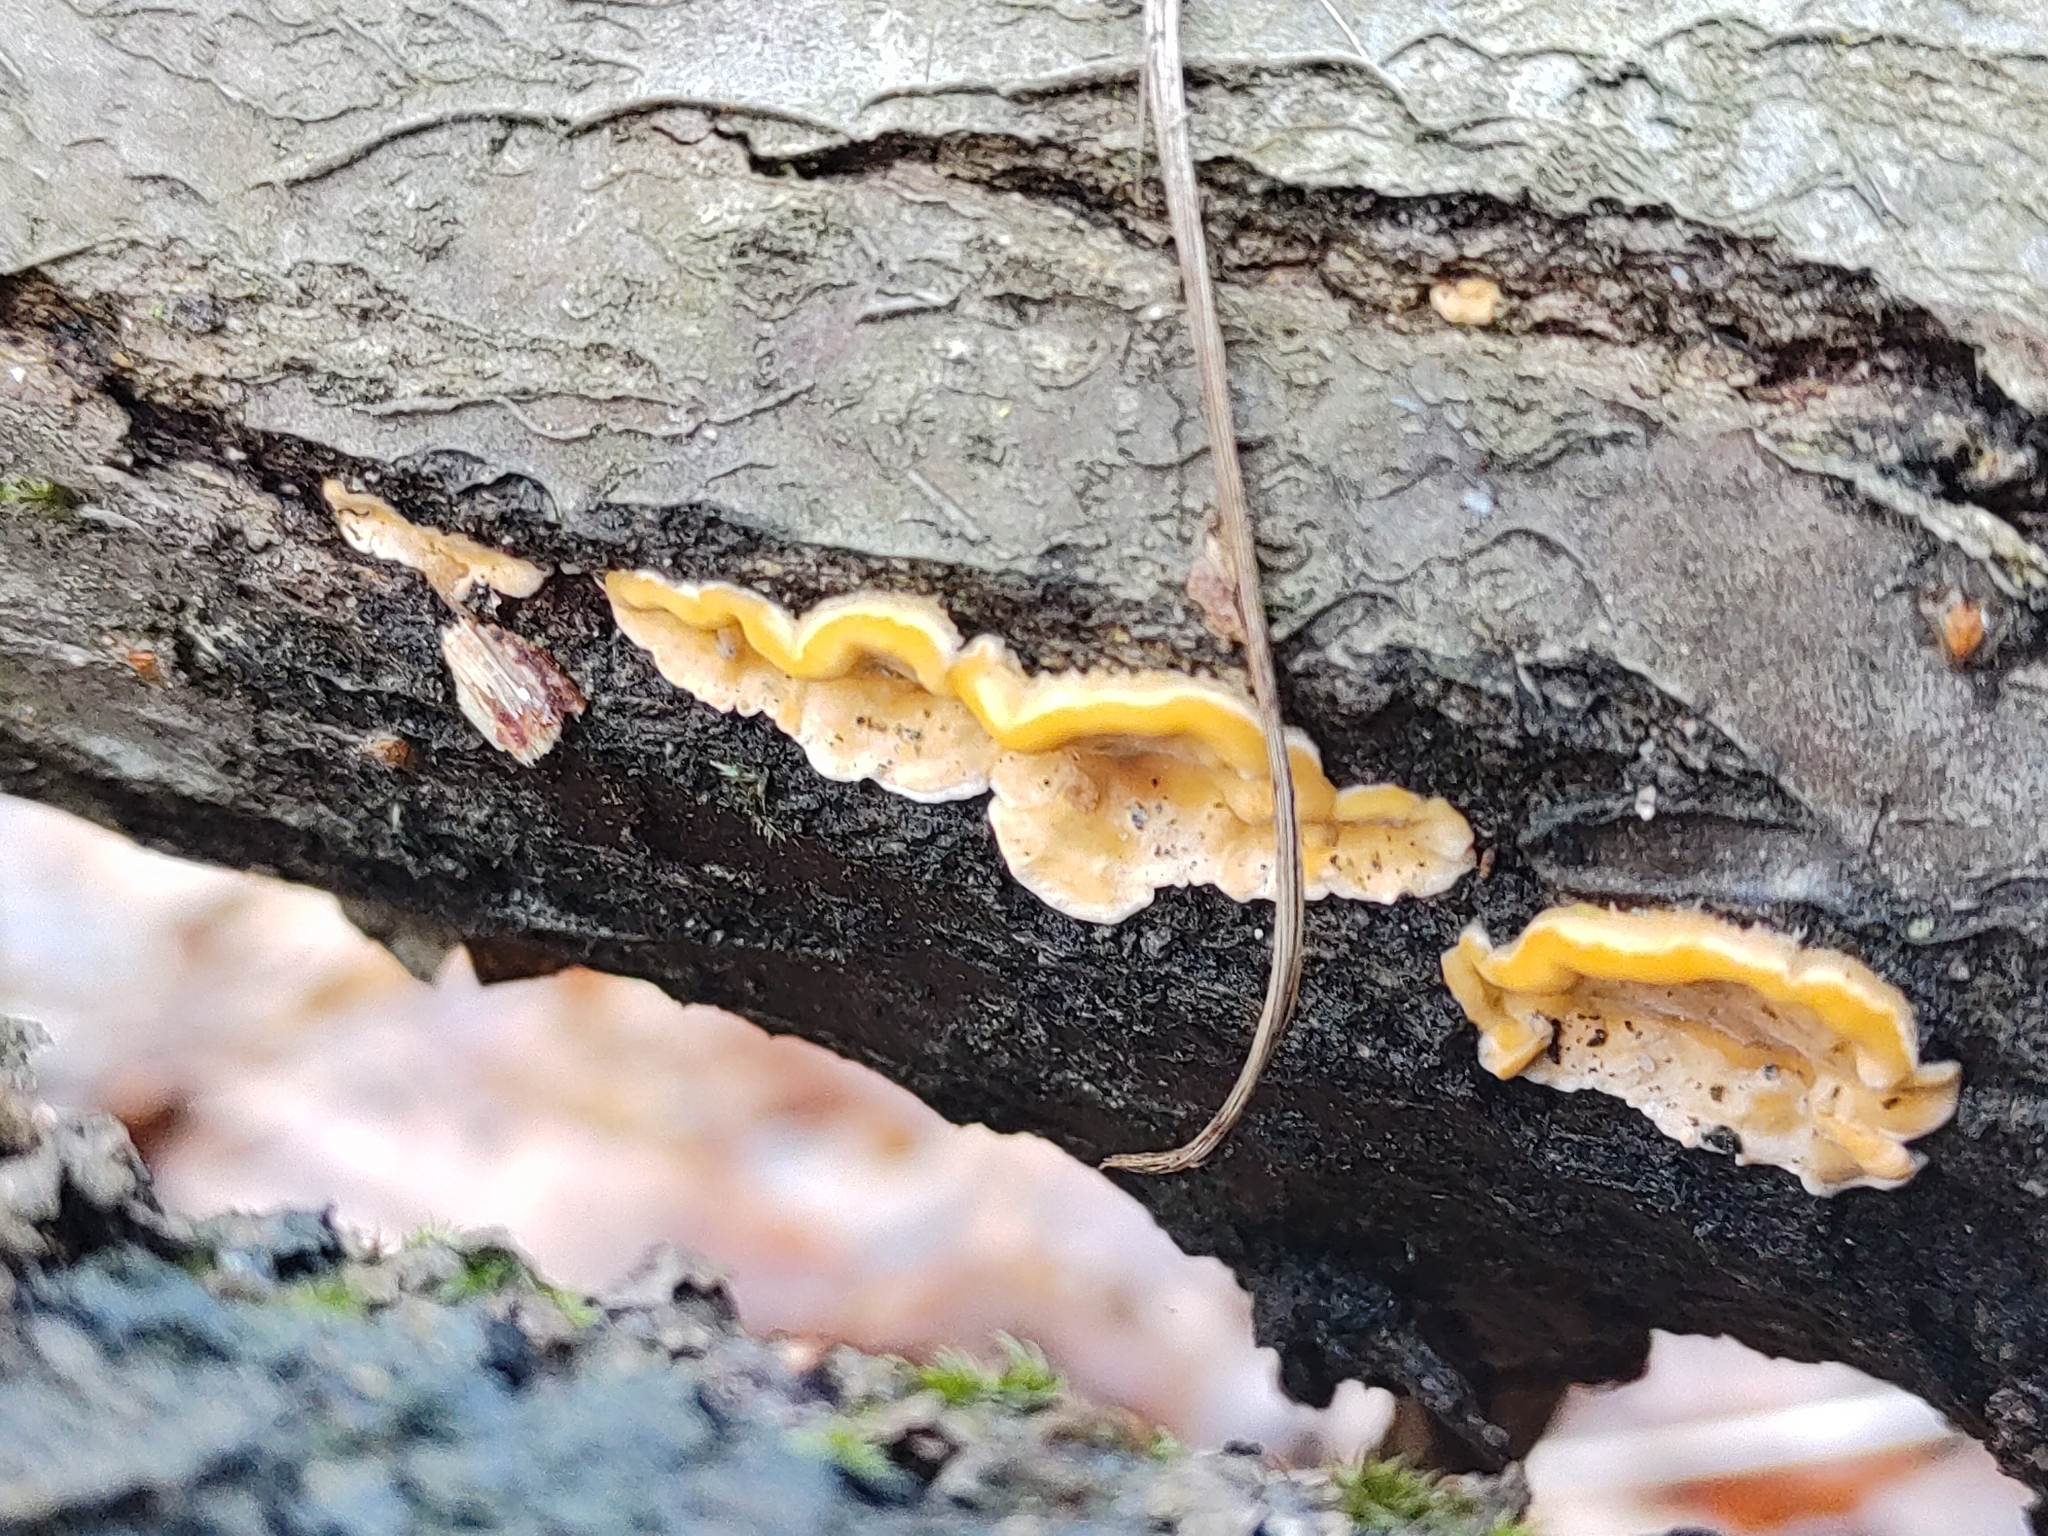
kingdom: Fungi
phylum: Basidiomycota
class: Agaricomycetes
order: Russulales
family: Stereaceae
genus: Stereum
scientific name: Stereum hirsutum
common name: Hairy curtain crust
